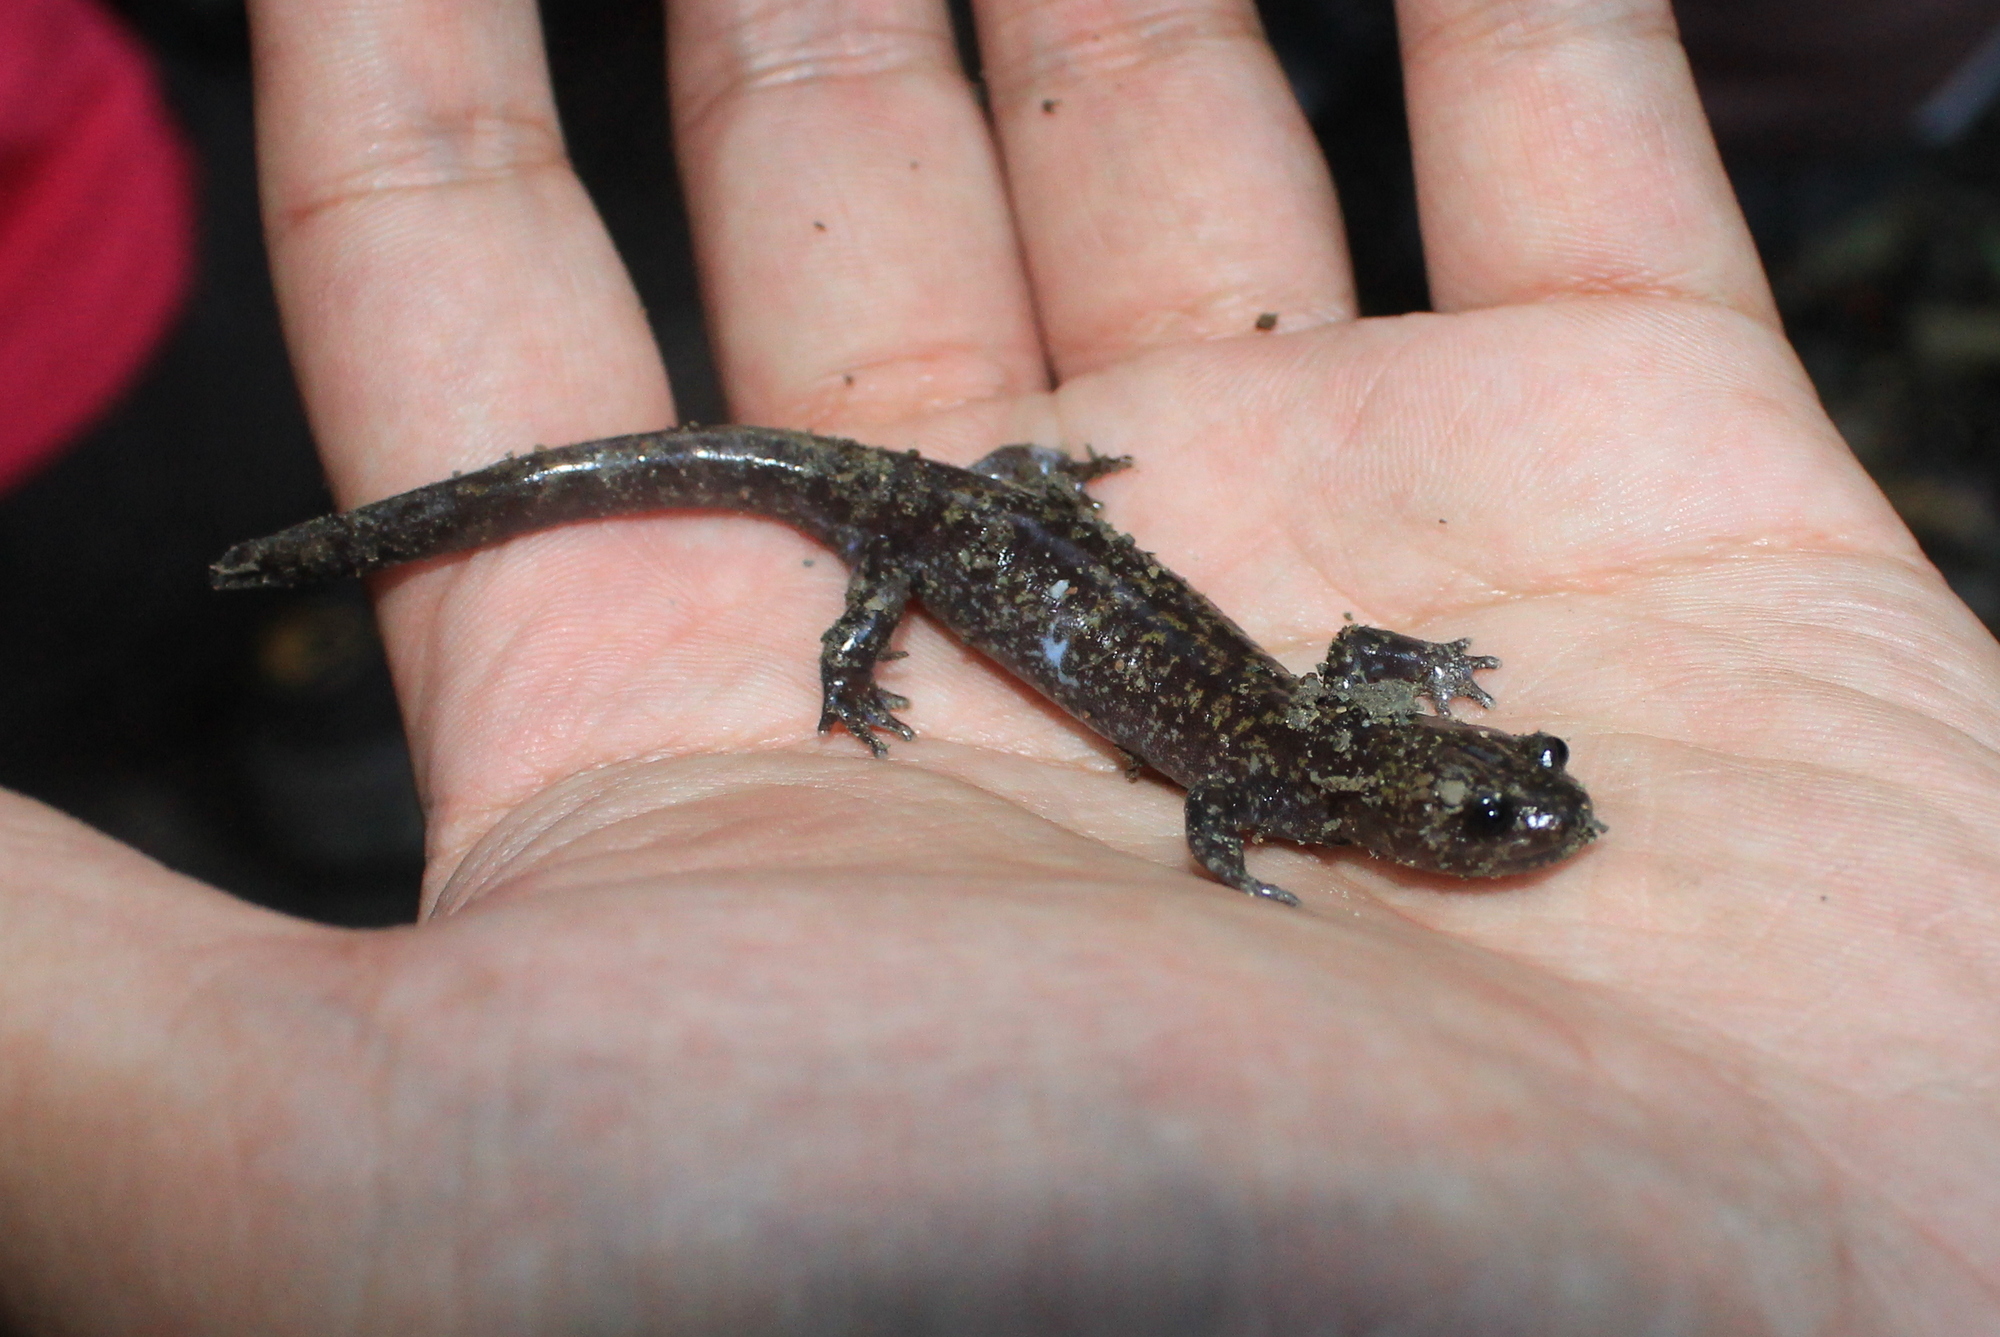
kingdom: Animalia
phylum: Chordata
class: Amphibia
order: Caudata
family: Hynobiidae
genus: Hynobius
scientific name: Hynobius formosanus
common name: Taiwan salamander
